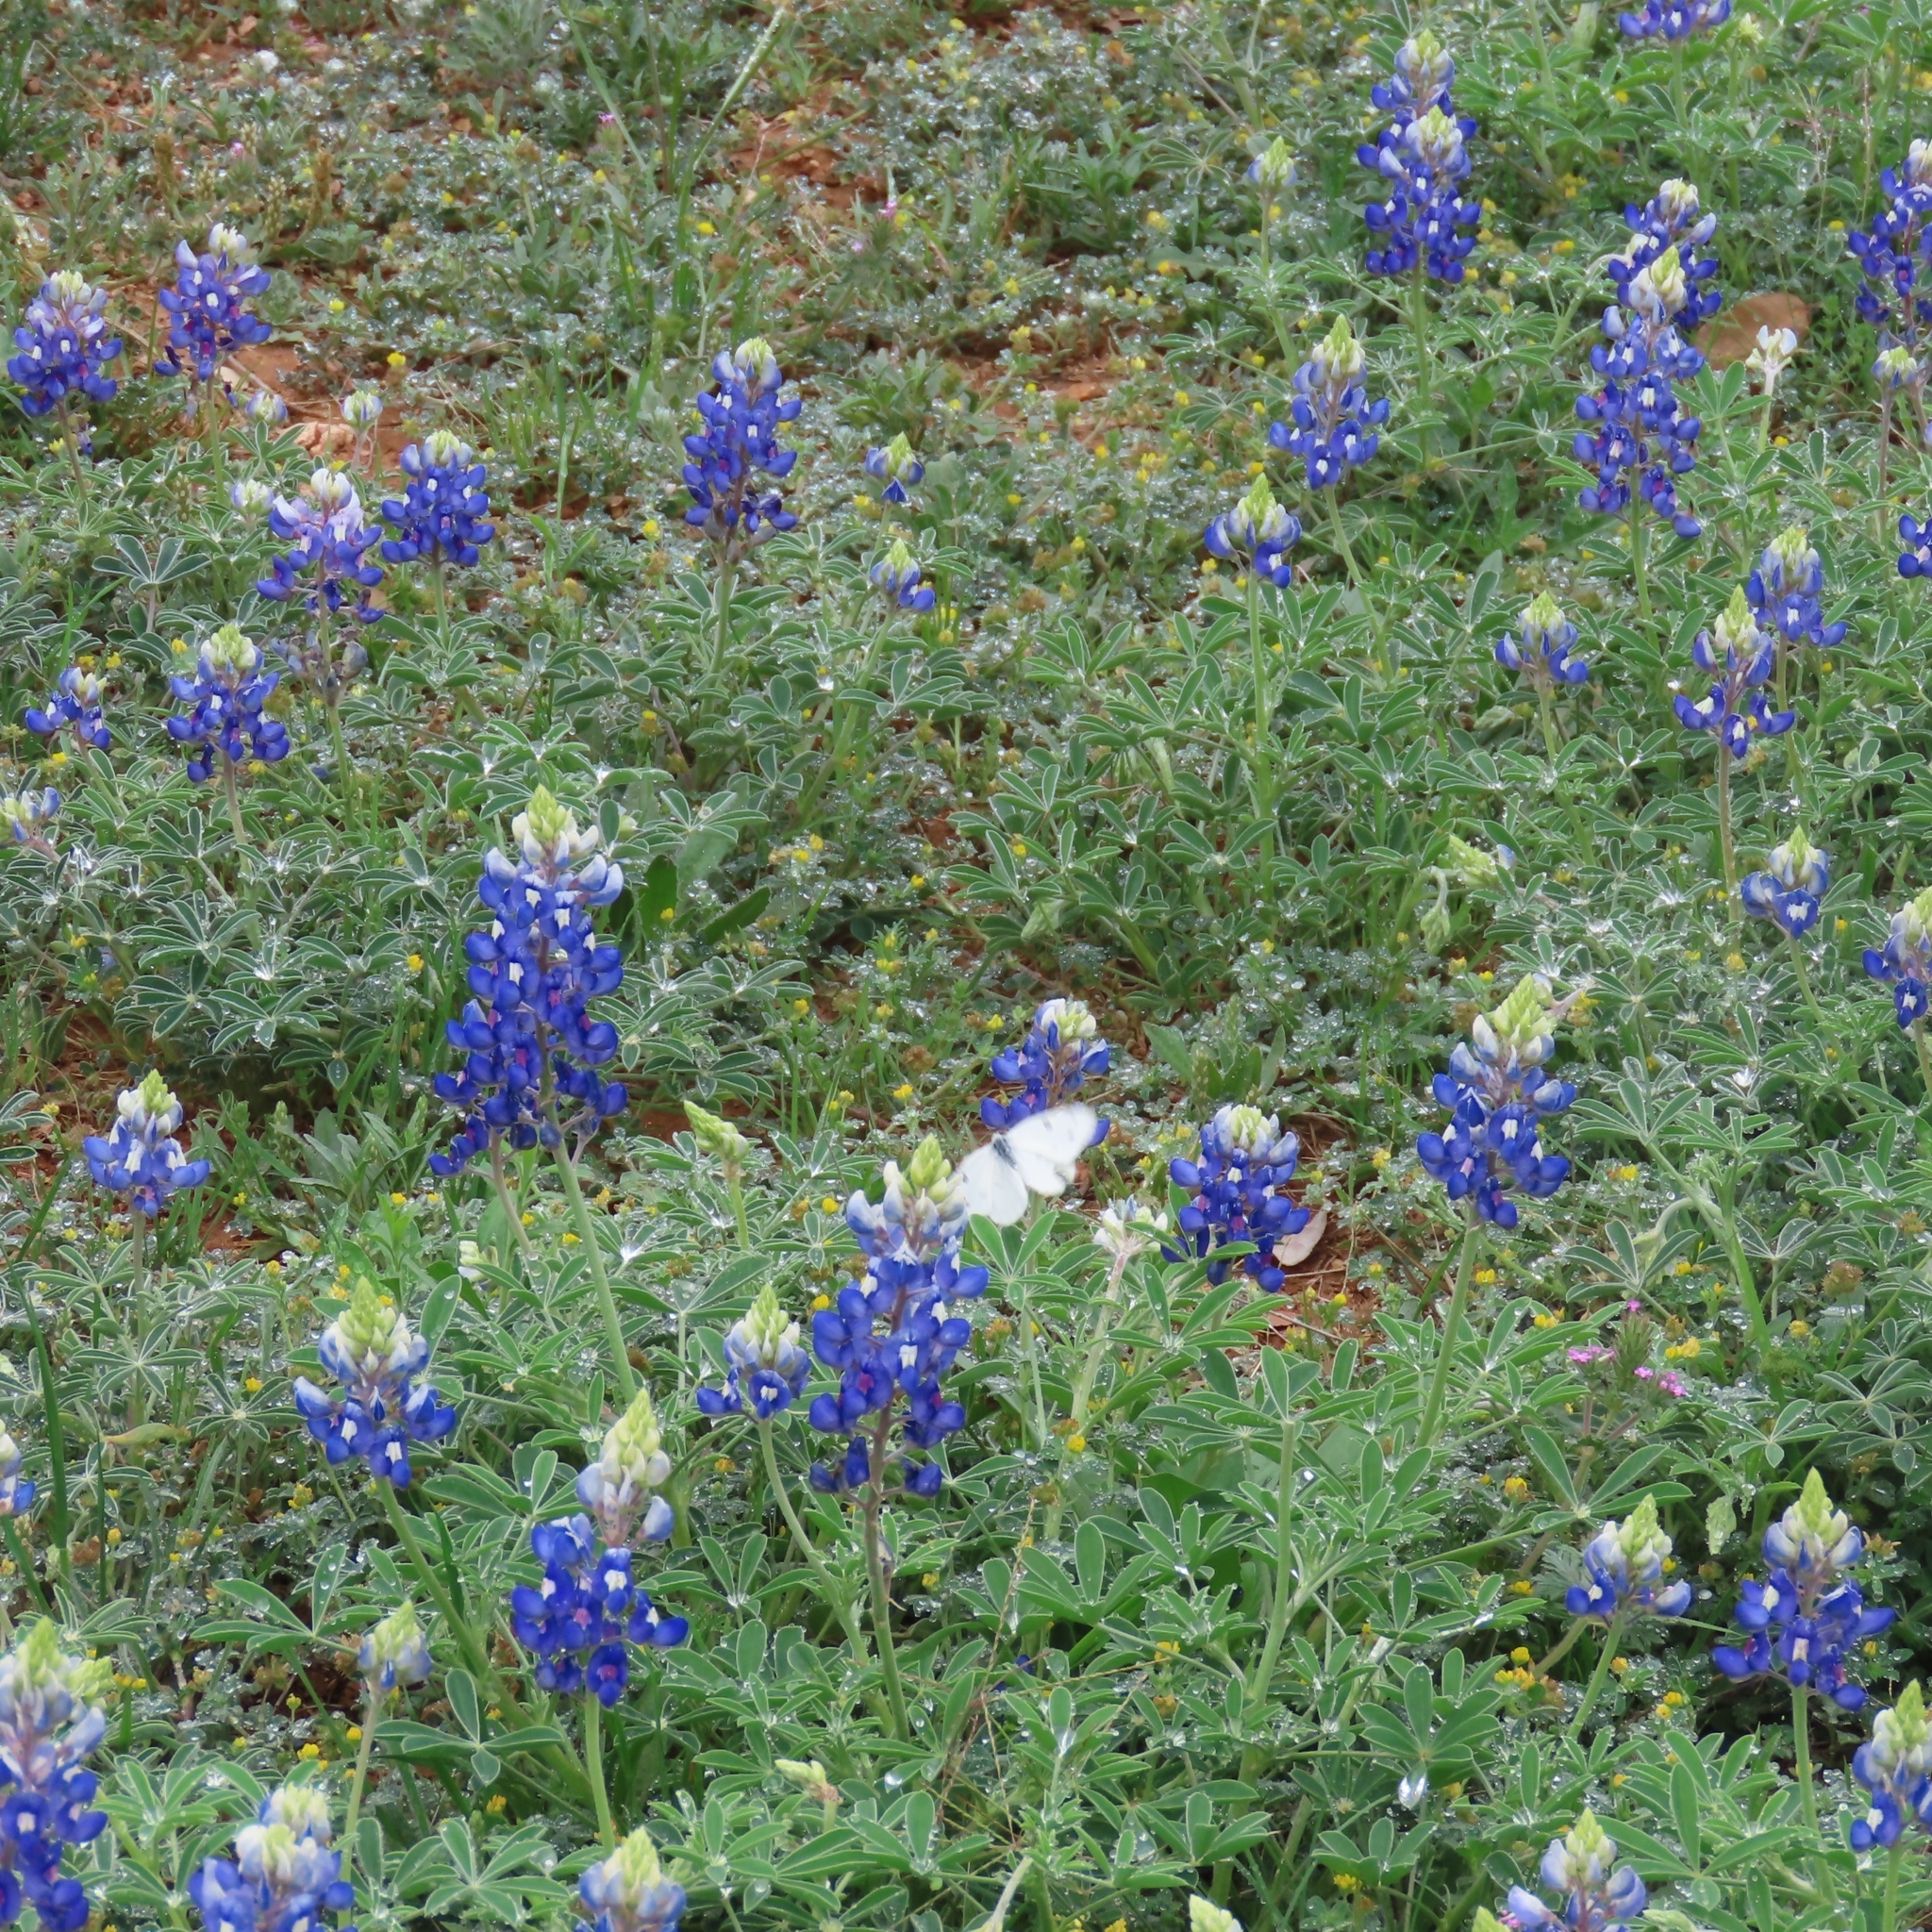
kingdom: Plantae
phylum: Tracheophyta
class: Magnoliopsida
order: Fabales
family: Fabaceae
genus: Lupinus
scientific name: Lupinus texensis
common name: Texas bluebonnet
